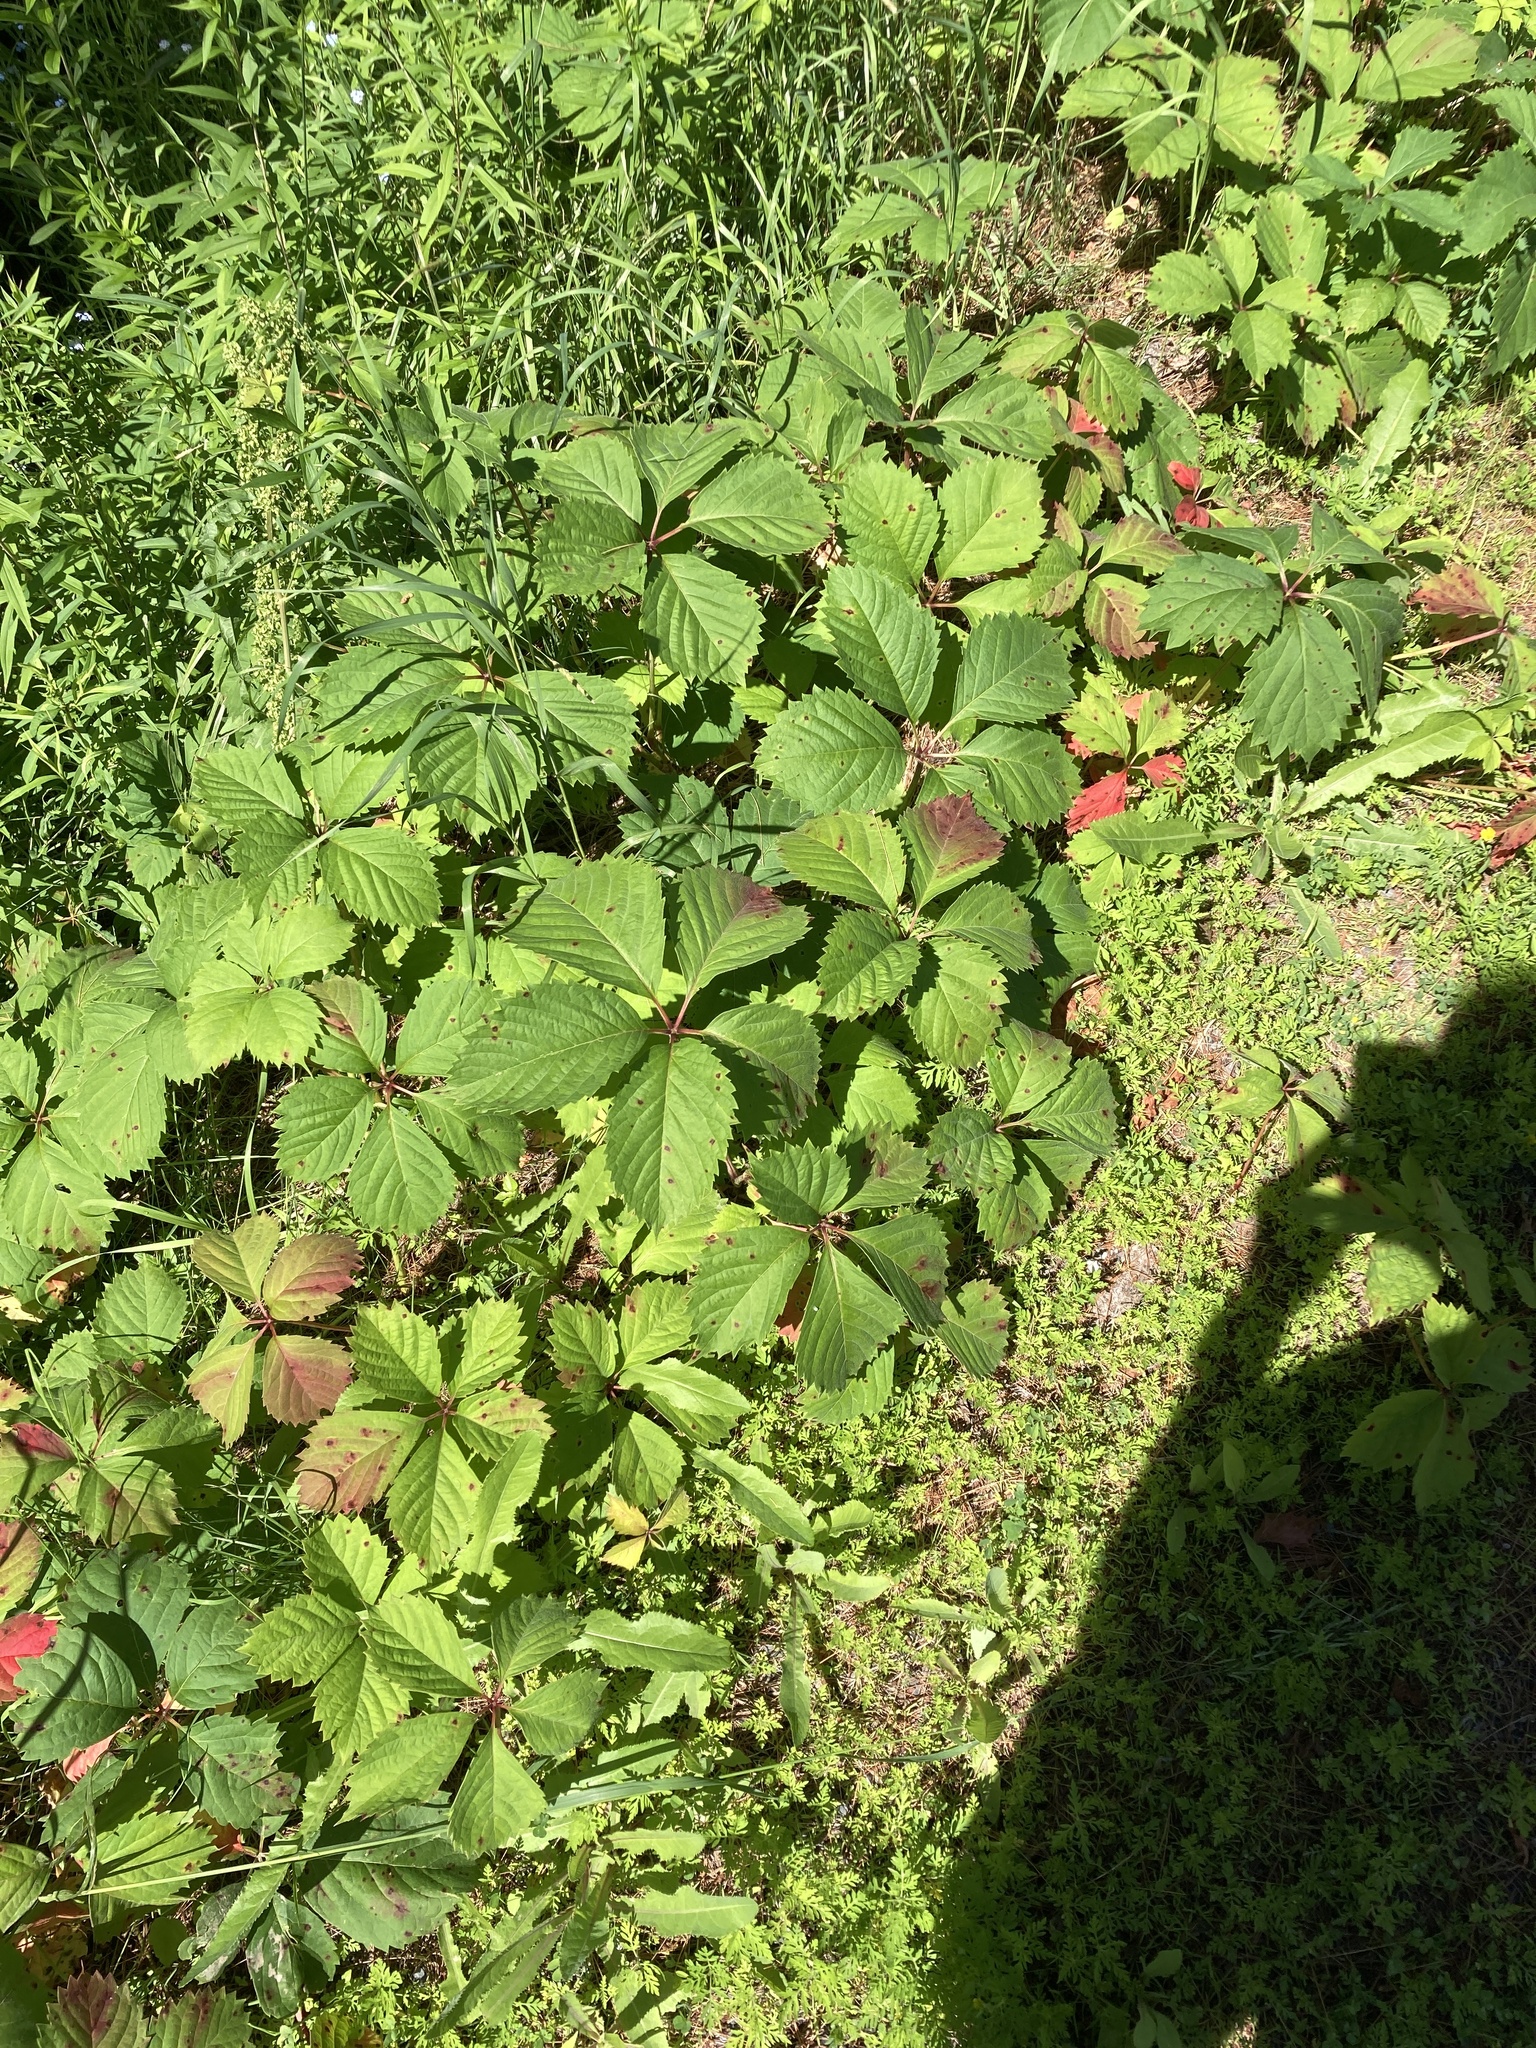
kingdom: Plantae
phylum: Tracheophyta
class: Magnoliopsida
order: Vitales
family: Vitaceae
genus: Parthenocissus
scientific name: Parthenocissus inserta
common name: False virginia-creeper
